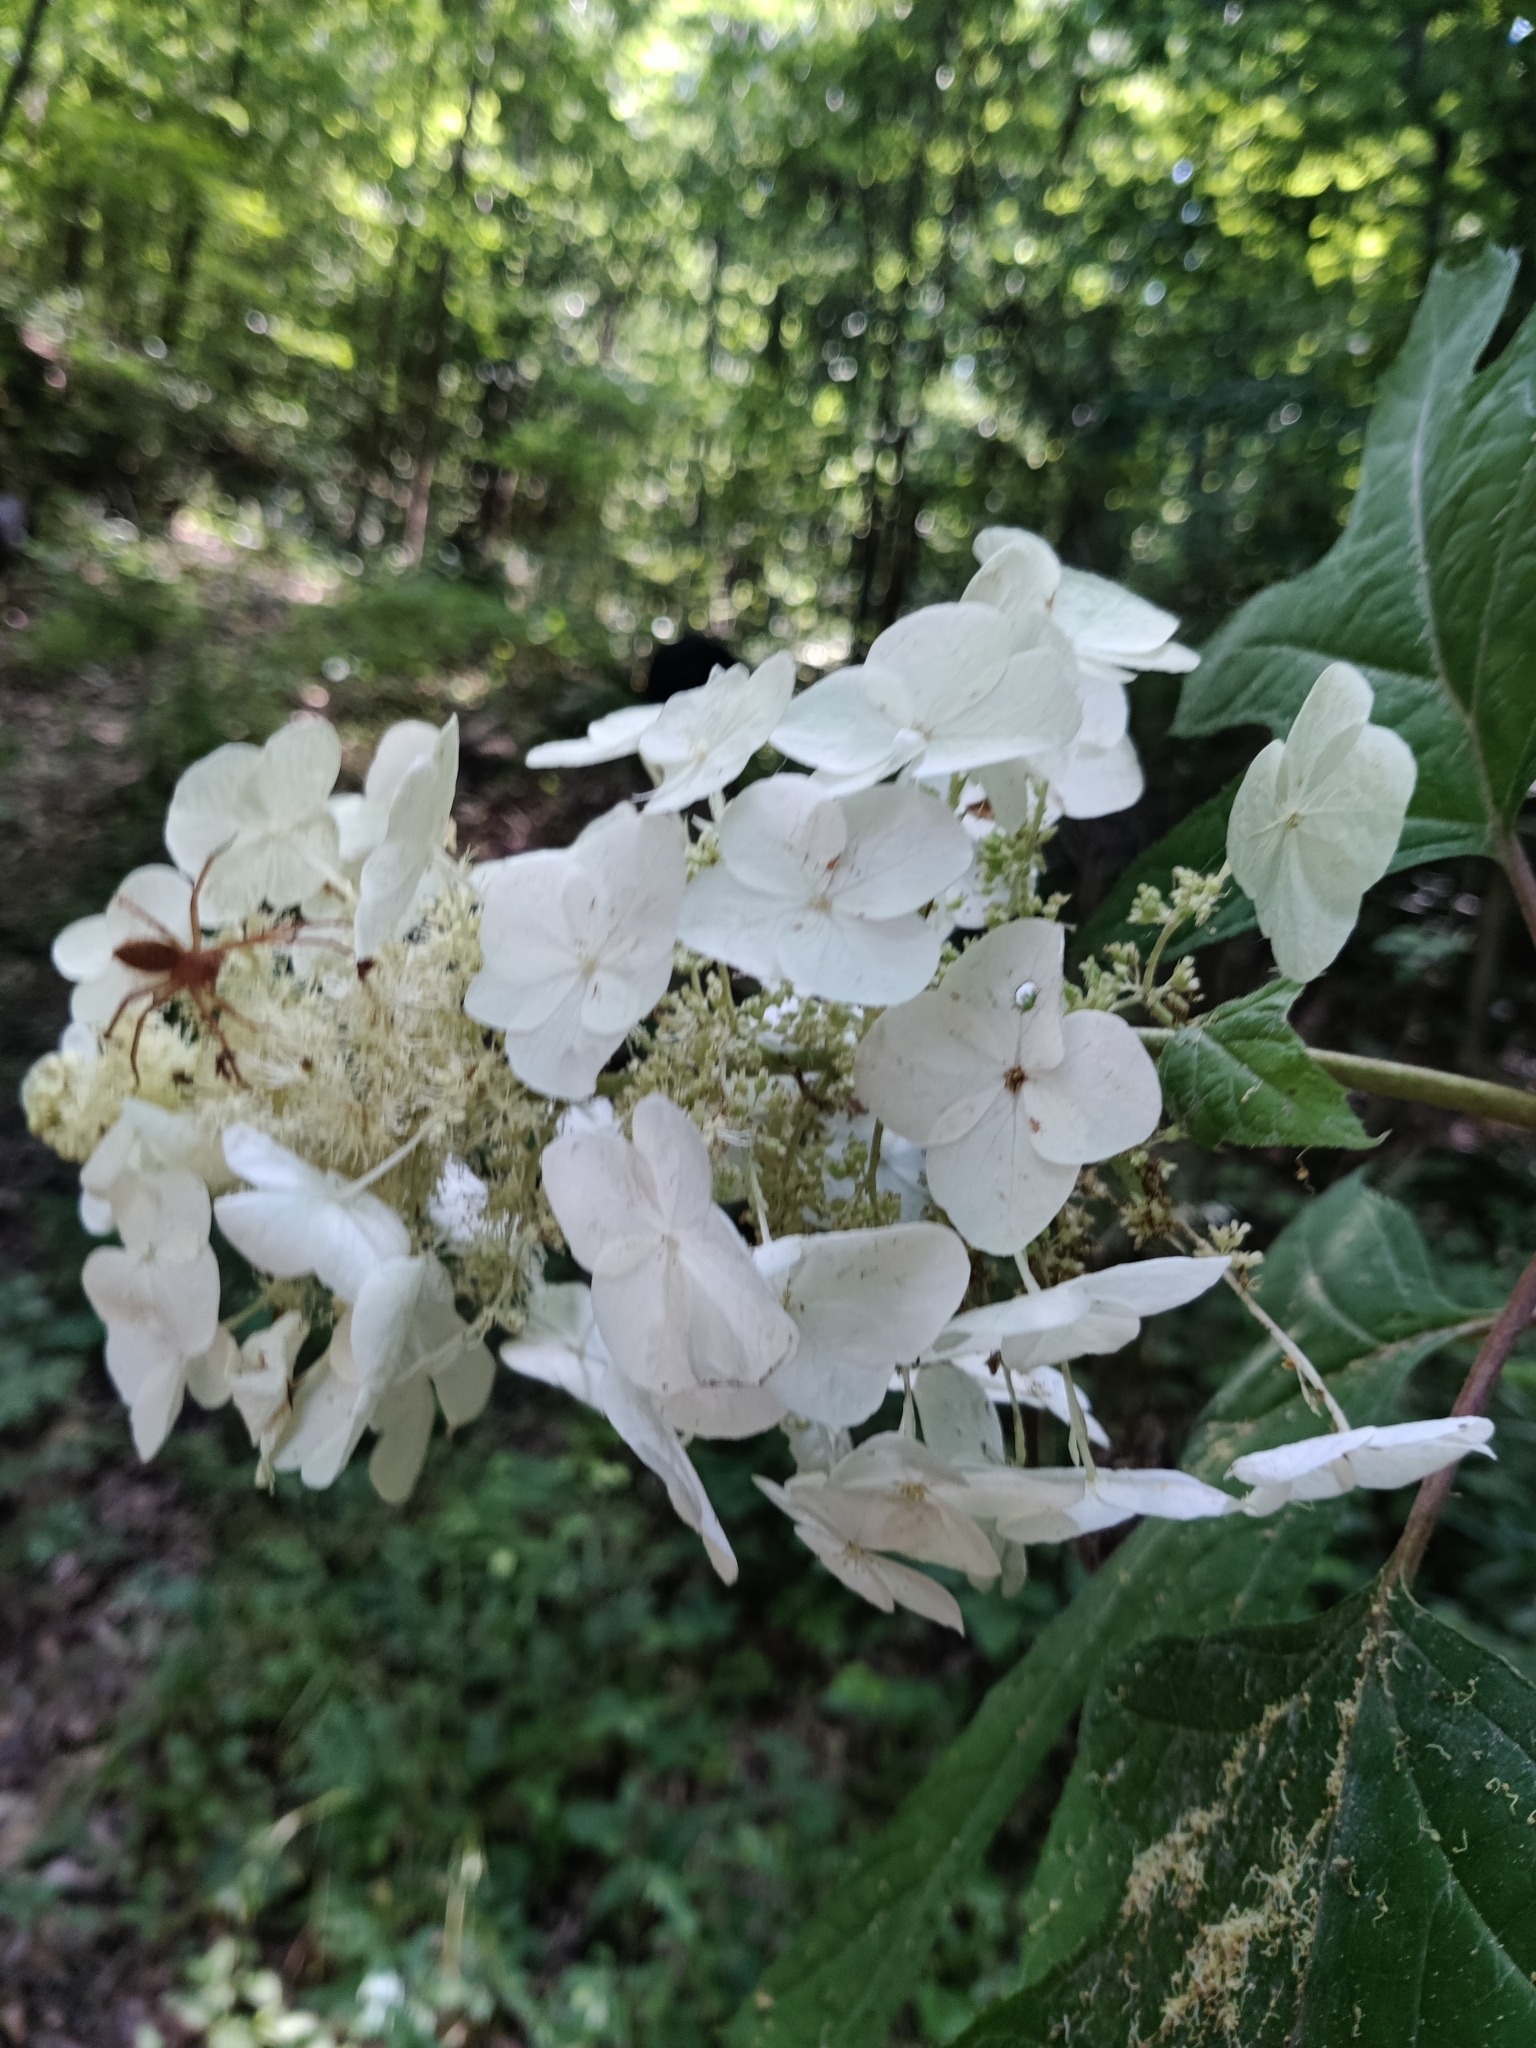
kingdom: Plantae
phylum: Tracheophyta
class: Magnoliopsida
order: Cornales
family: Hydrangeaceae
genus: Hydrangea
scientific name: Hydrangea quercifolia
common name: Oak-leaf hydrangea
